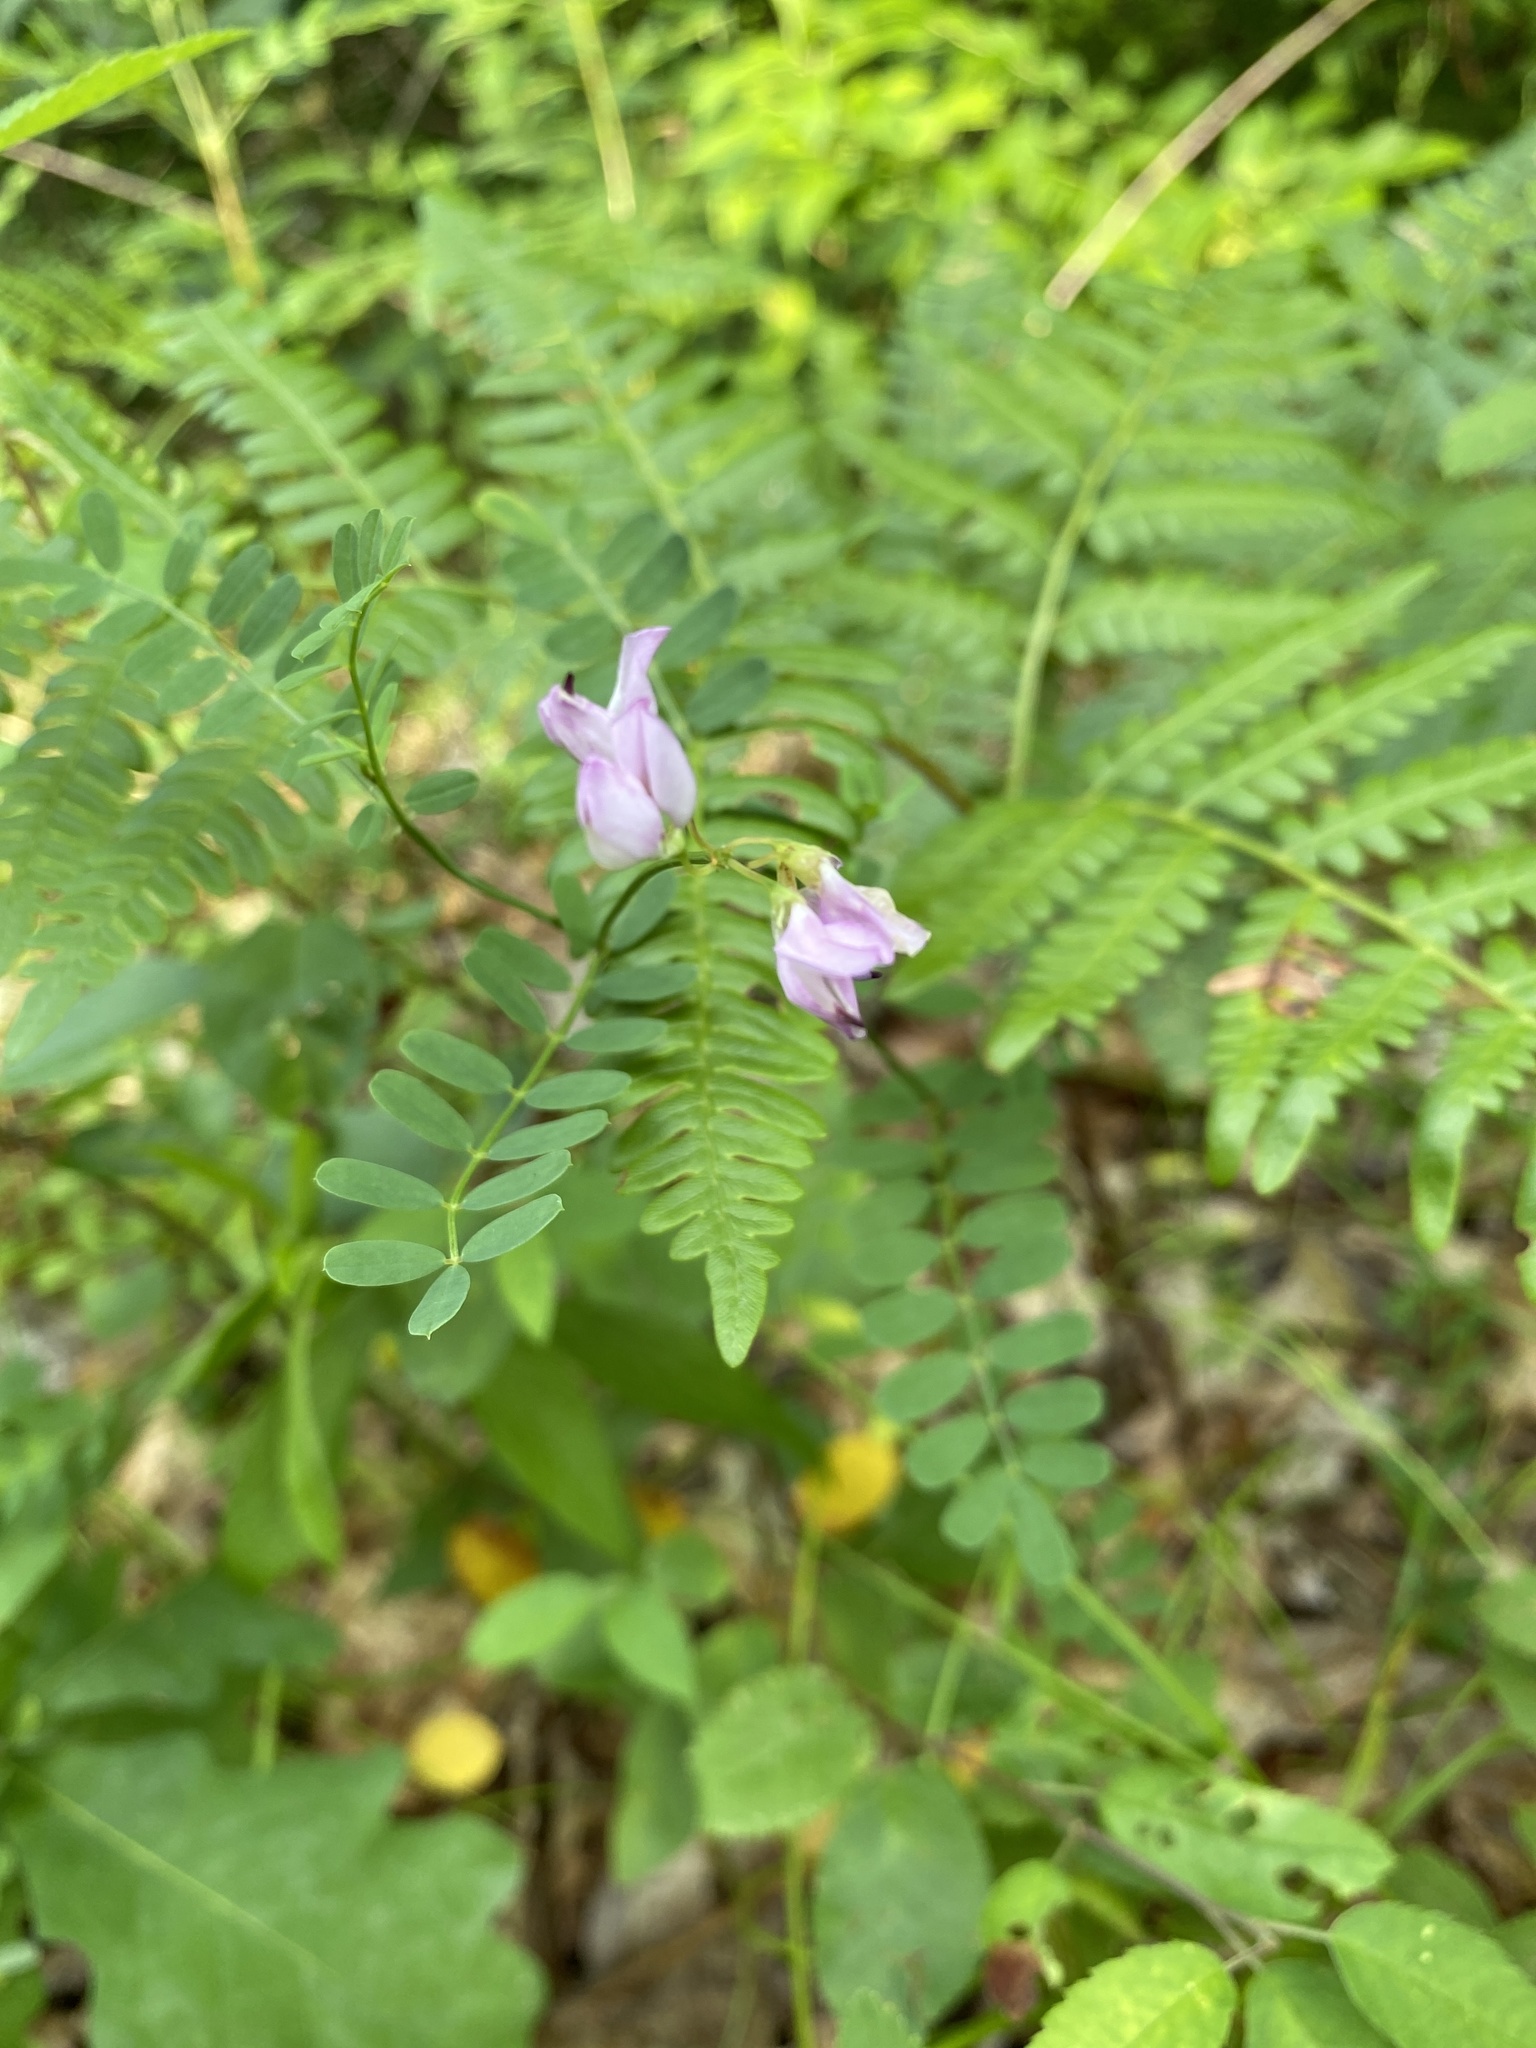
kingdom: Plantae
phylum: Tracheophyta
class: Magnoliopsida
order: Fabales
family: Fabaceae
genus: Coronilla
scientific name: Coronilla varia
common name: Crownvetch
